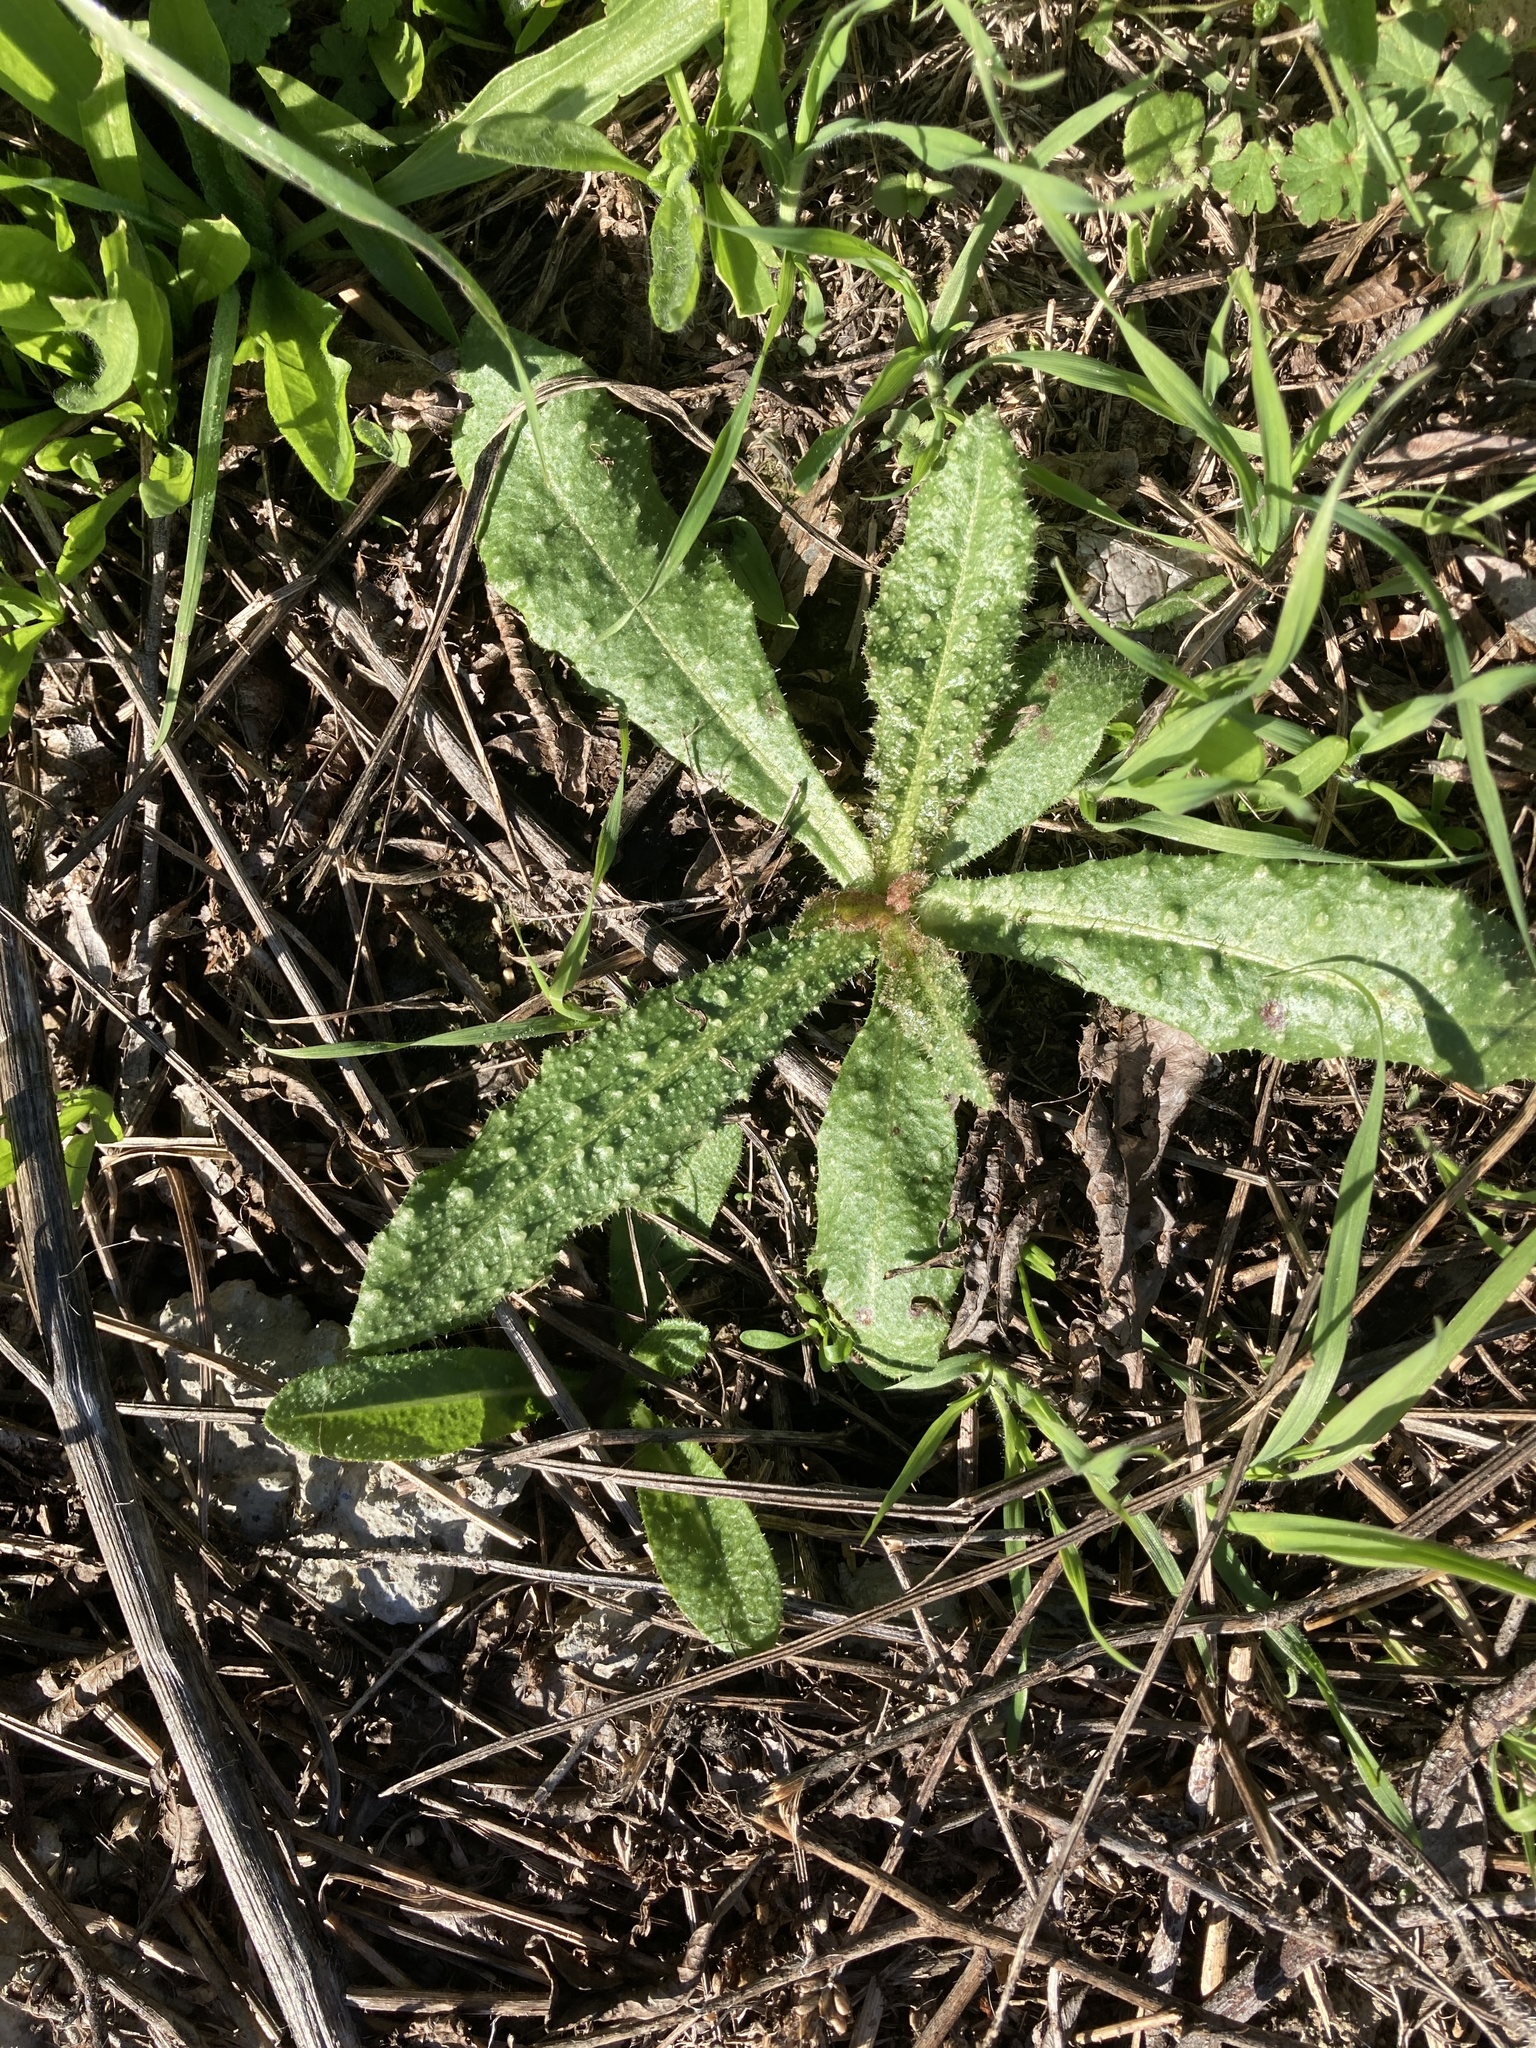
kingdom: Plantae
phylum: Tracheophyta
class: Magnoliopsida
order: Asterales
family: Asteraceae
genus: Helminthotheca
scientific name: Helminthotheca echioides
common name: Ox-tongue
